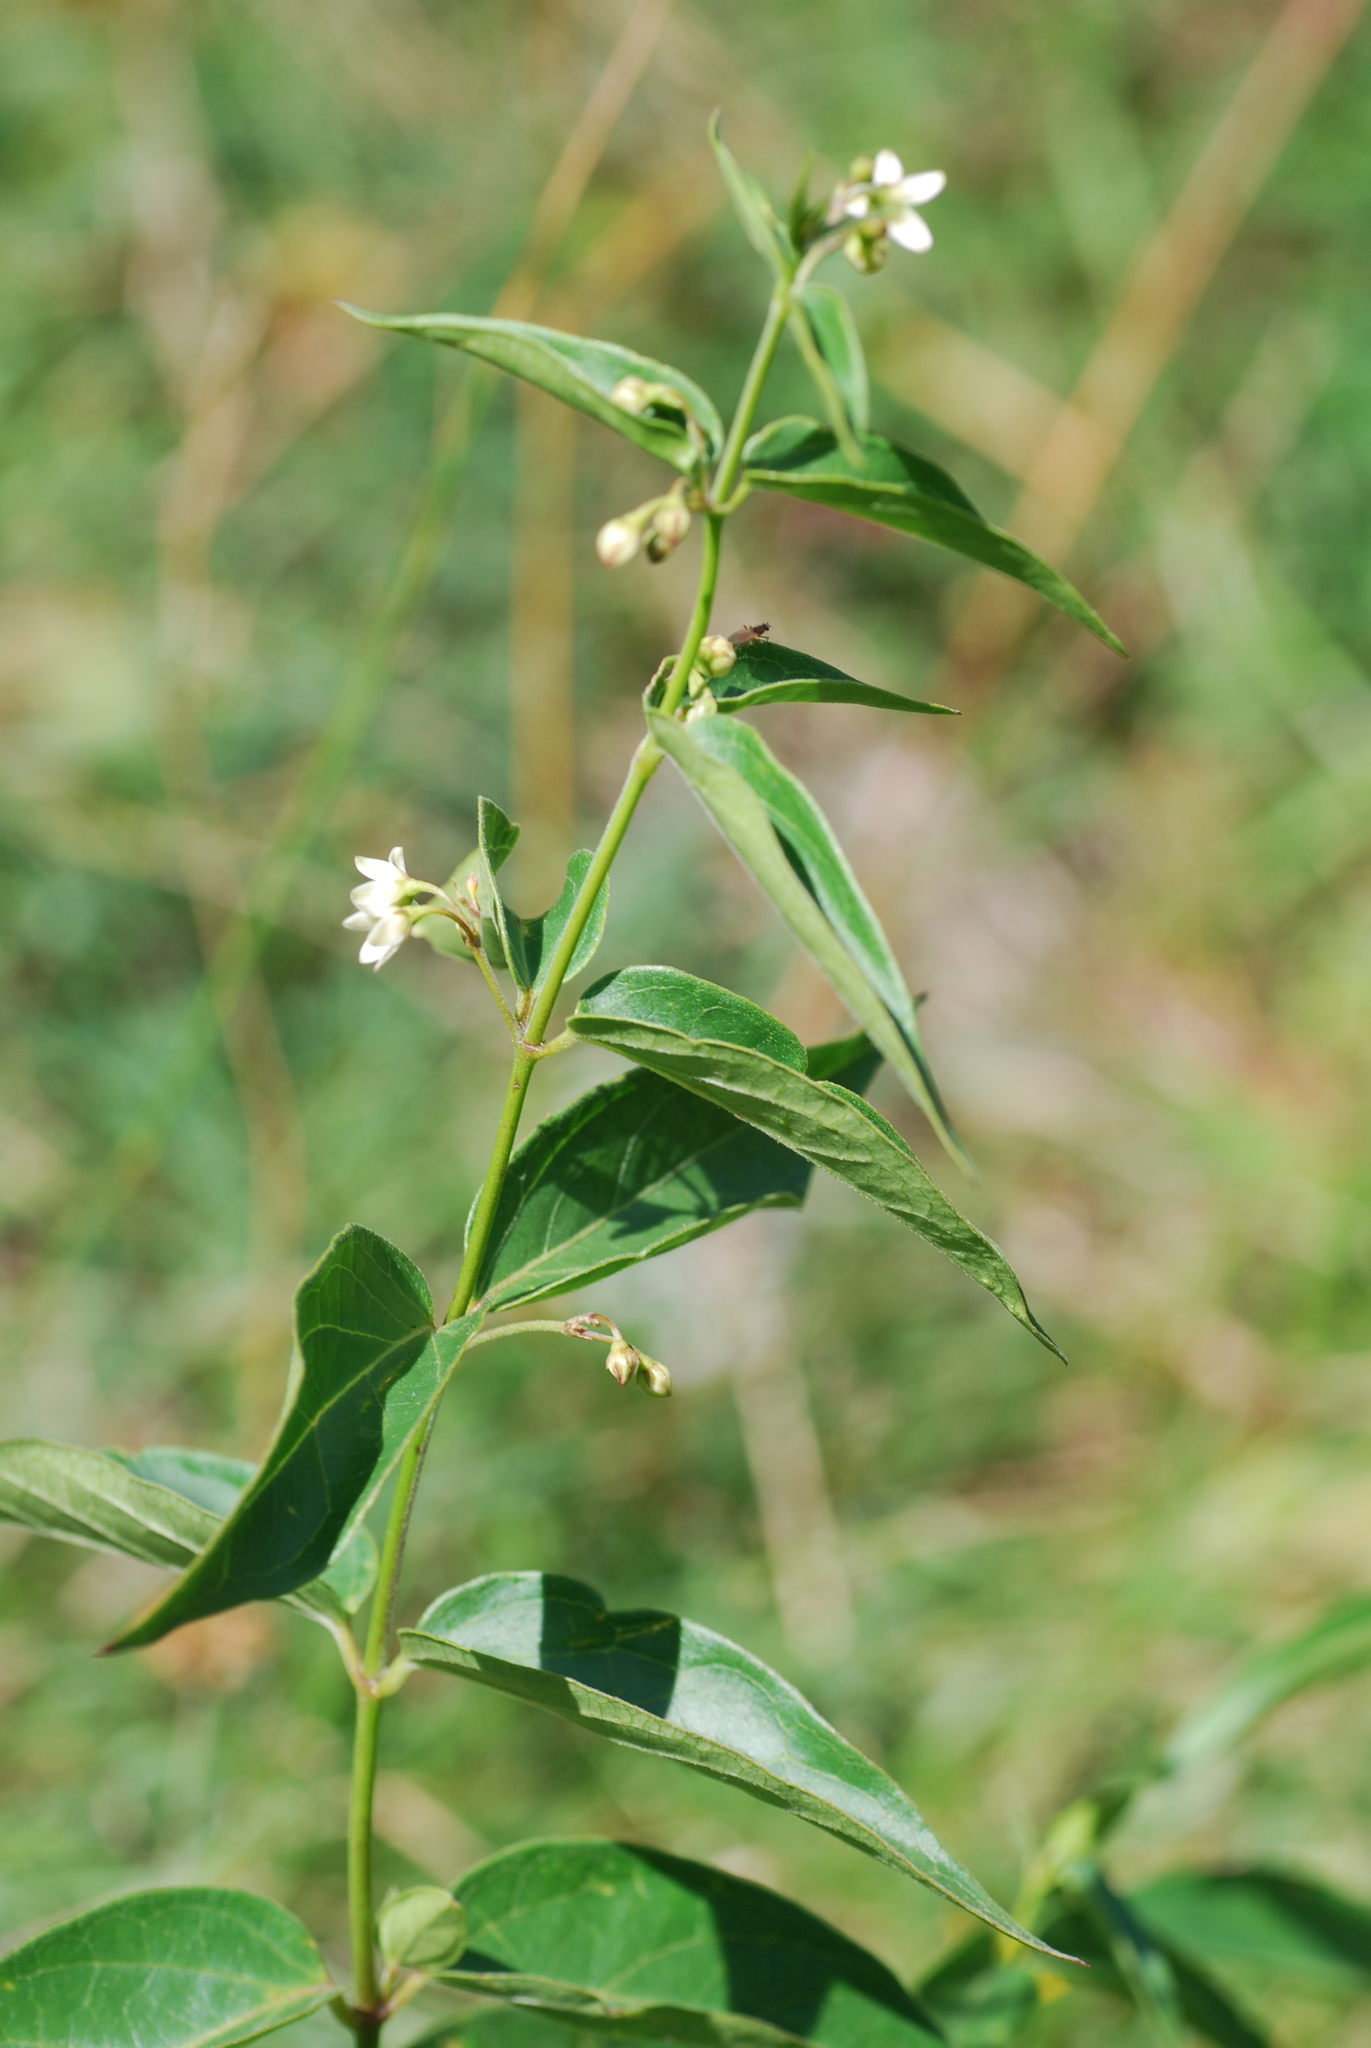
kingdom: Plantae
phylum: Tracheophyta
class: Magnoliopsida
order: Gentianales
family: Apocynaceae
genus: Vincetoxicum
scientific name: Vincetoxicum hirundinaria
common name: White swallowwort
